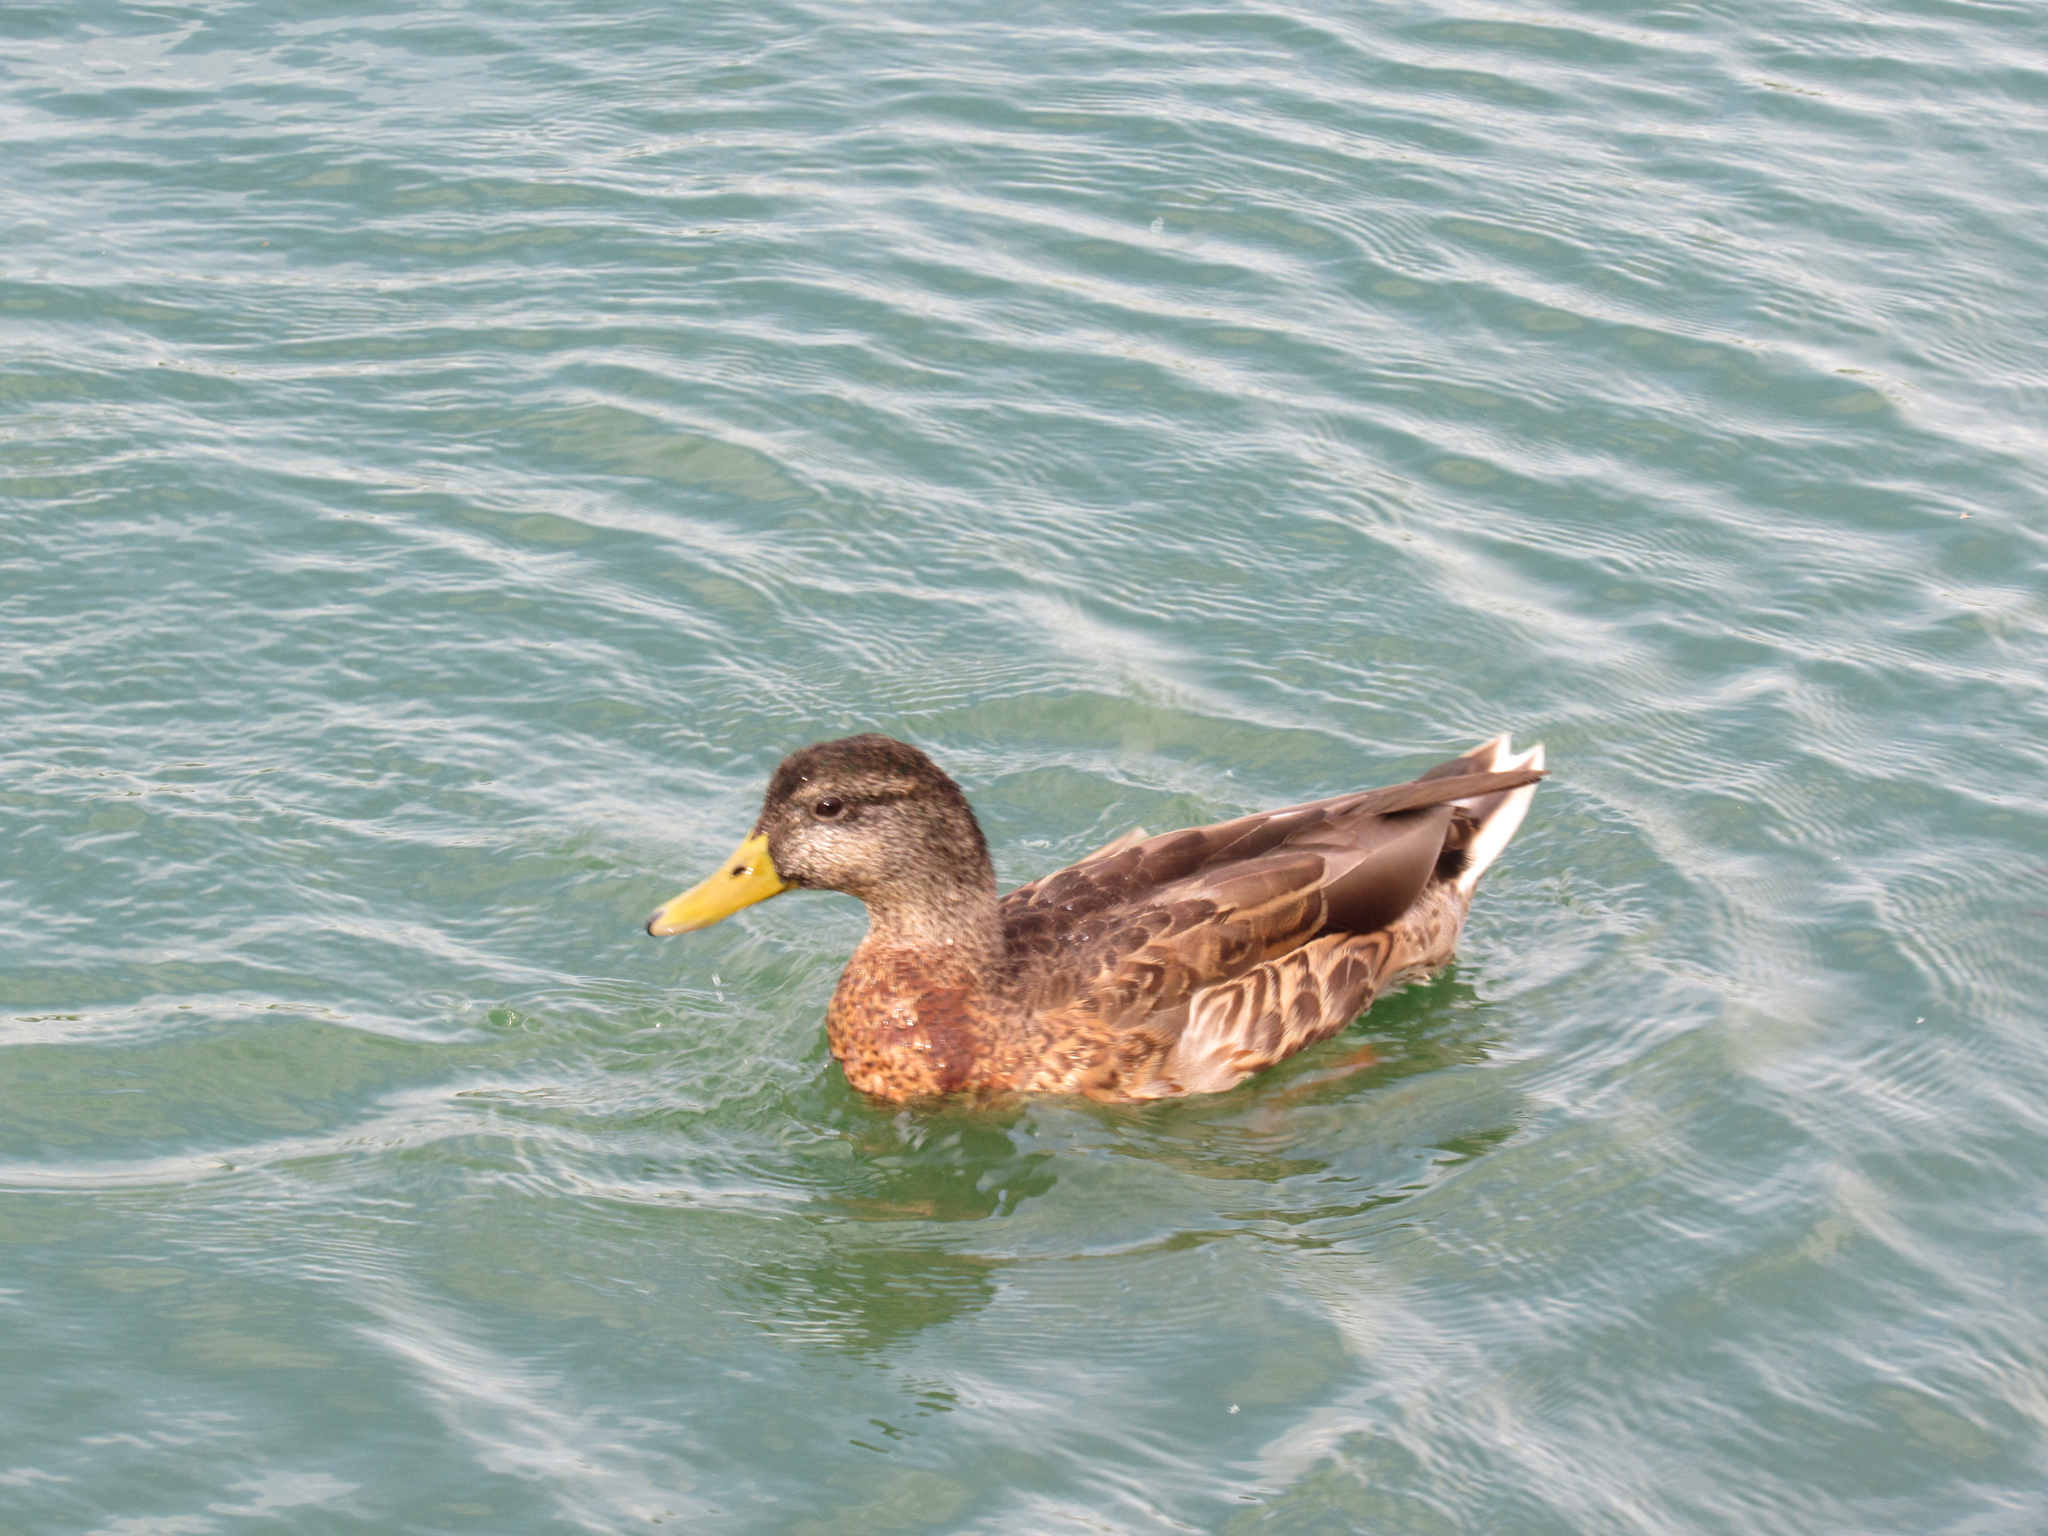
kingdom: Animalia
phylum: Chordata
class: Aves
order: Anseriformes
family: Anatidae
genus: Anas
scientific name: Anas platyrhynchos
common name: Mallard
